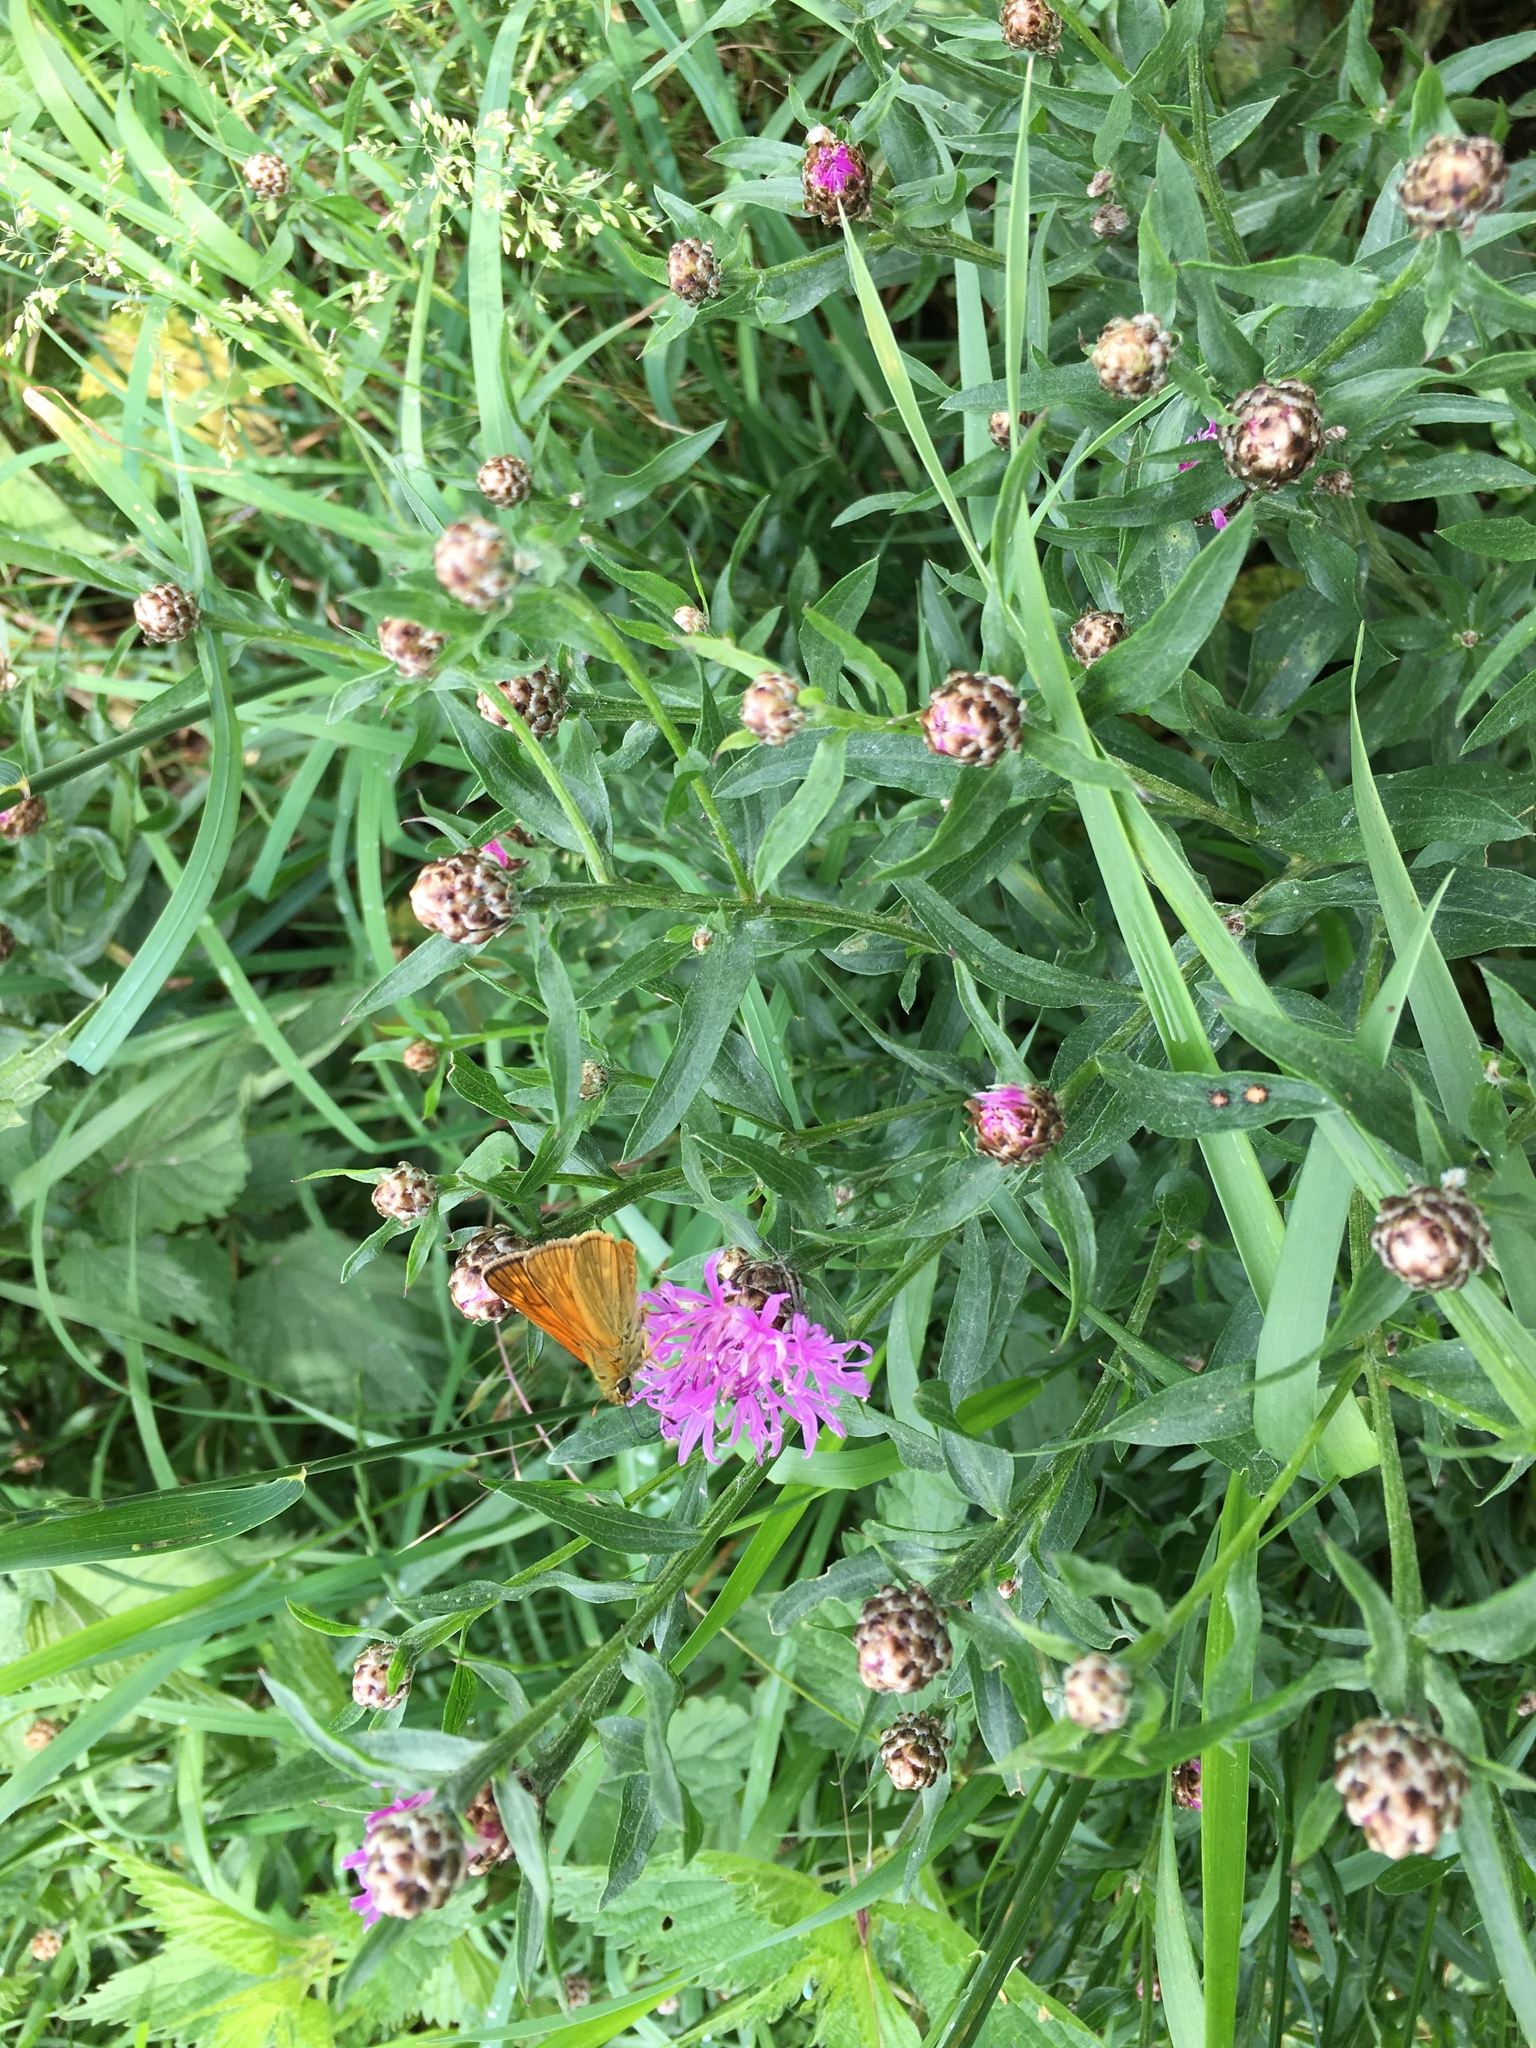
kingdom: Animalia
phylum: Arthropoda
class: Insecta
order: Lepidoptera
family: Hesperiidae
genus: Ochlodes
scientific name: Ochlodes venata
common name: Large skipper
